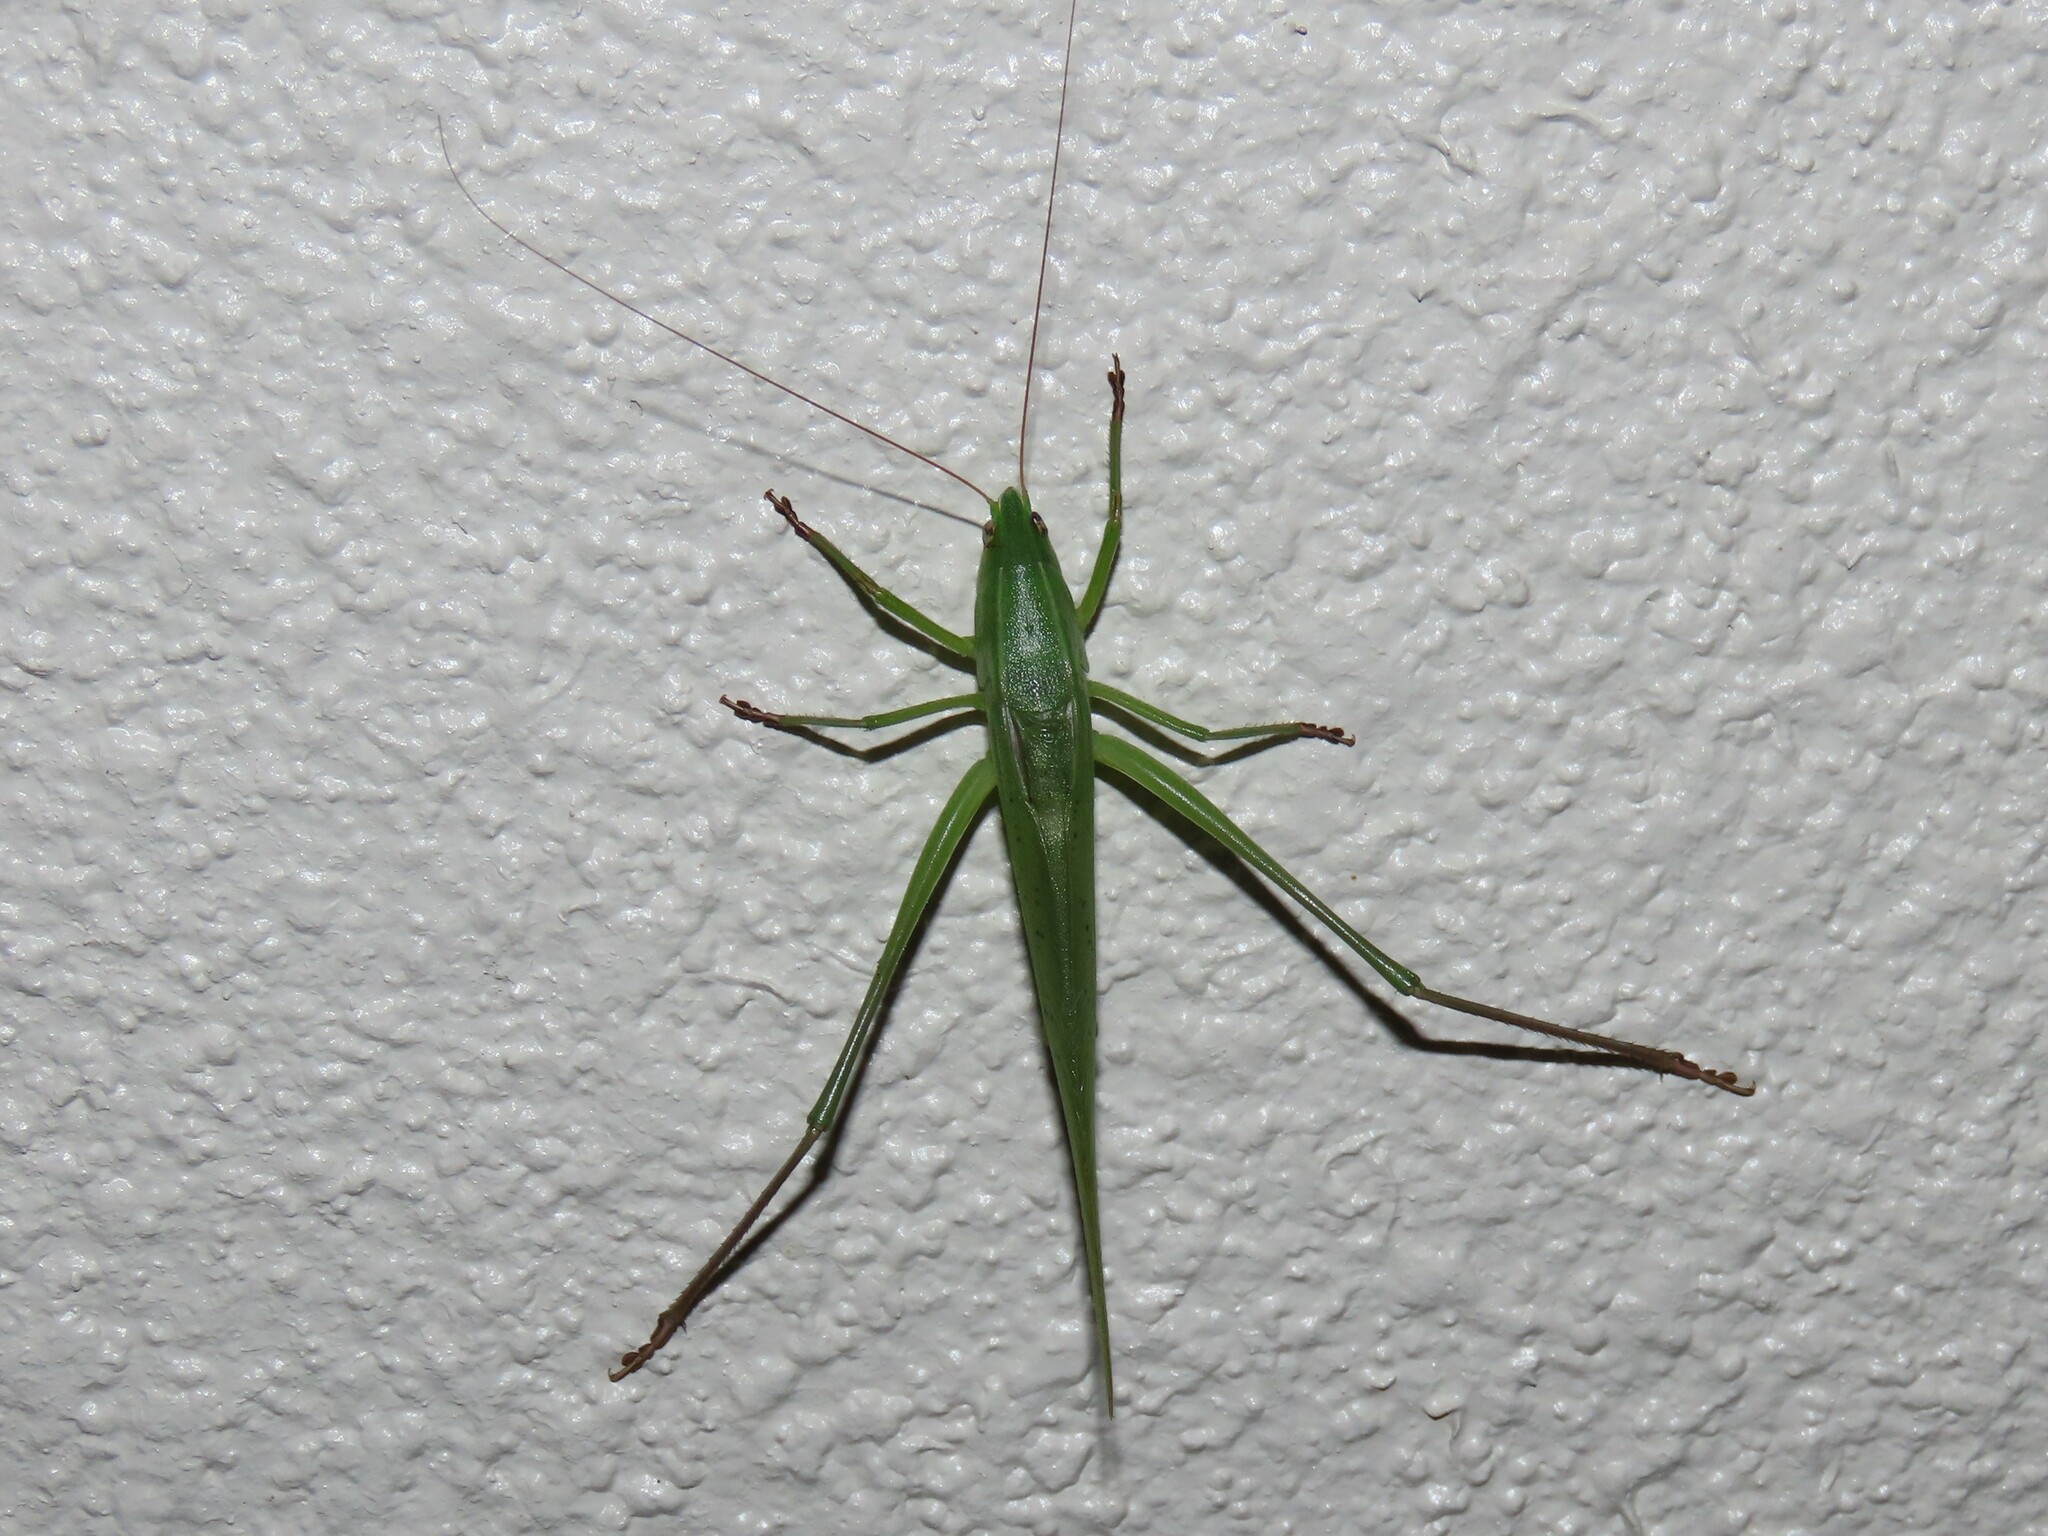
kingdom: Animalia
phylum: Arthropoda
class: Insecta
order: Orthoptera
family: Tettigoniidae
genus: Neoconocephalus
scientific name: Neoconocephalus triops
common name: Broad-tipped conehead
